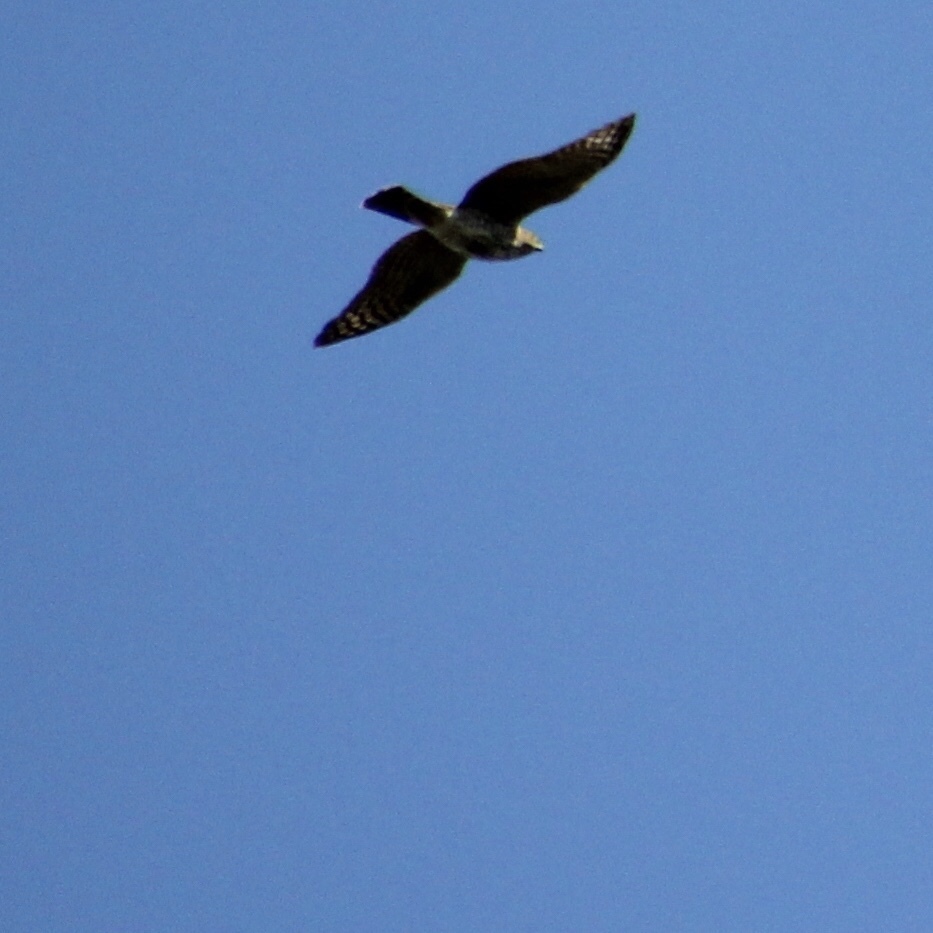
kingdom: Animalia
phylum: Chordata
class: Aves
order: Accipitriformes
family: Accipitridae
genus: Accipiter
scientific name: Accipiter cooperii
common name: Cooper's hawk
